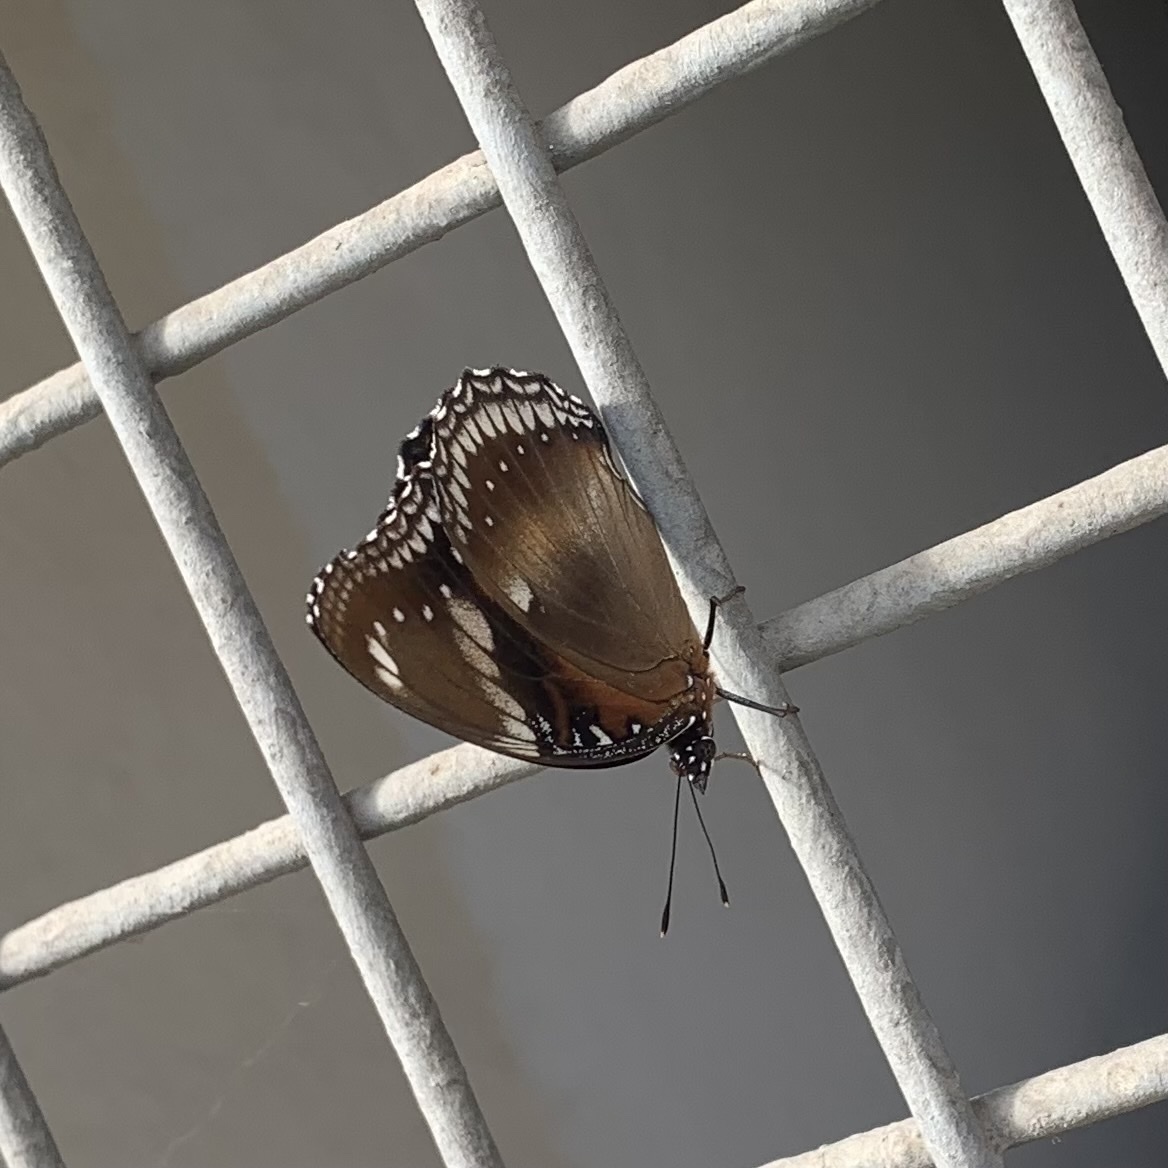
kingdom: Animalia
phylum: Arthropoda
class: Insecta
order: Lepidoptera
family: Nymphalidae
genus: Hypolimnas
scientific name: Hypolimnas bolina
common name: Great eggfly
